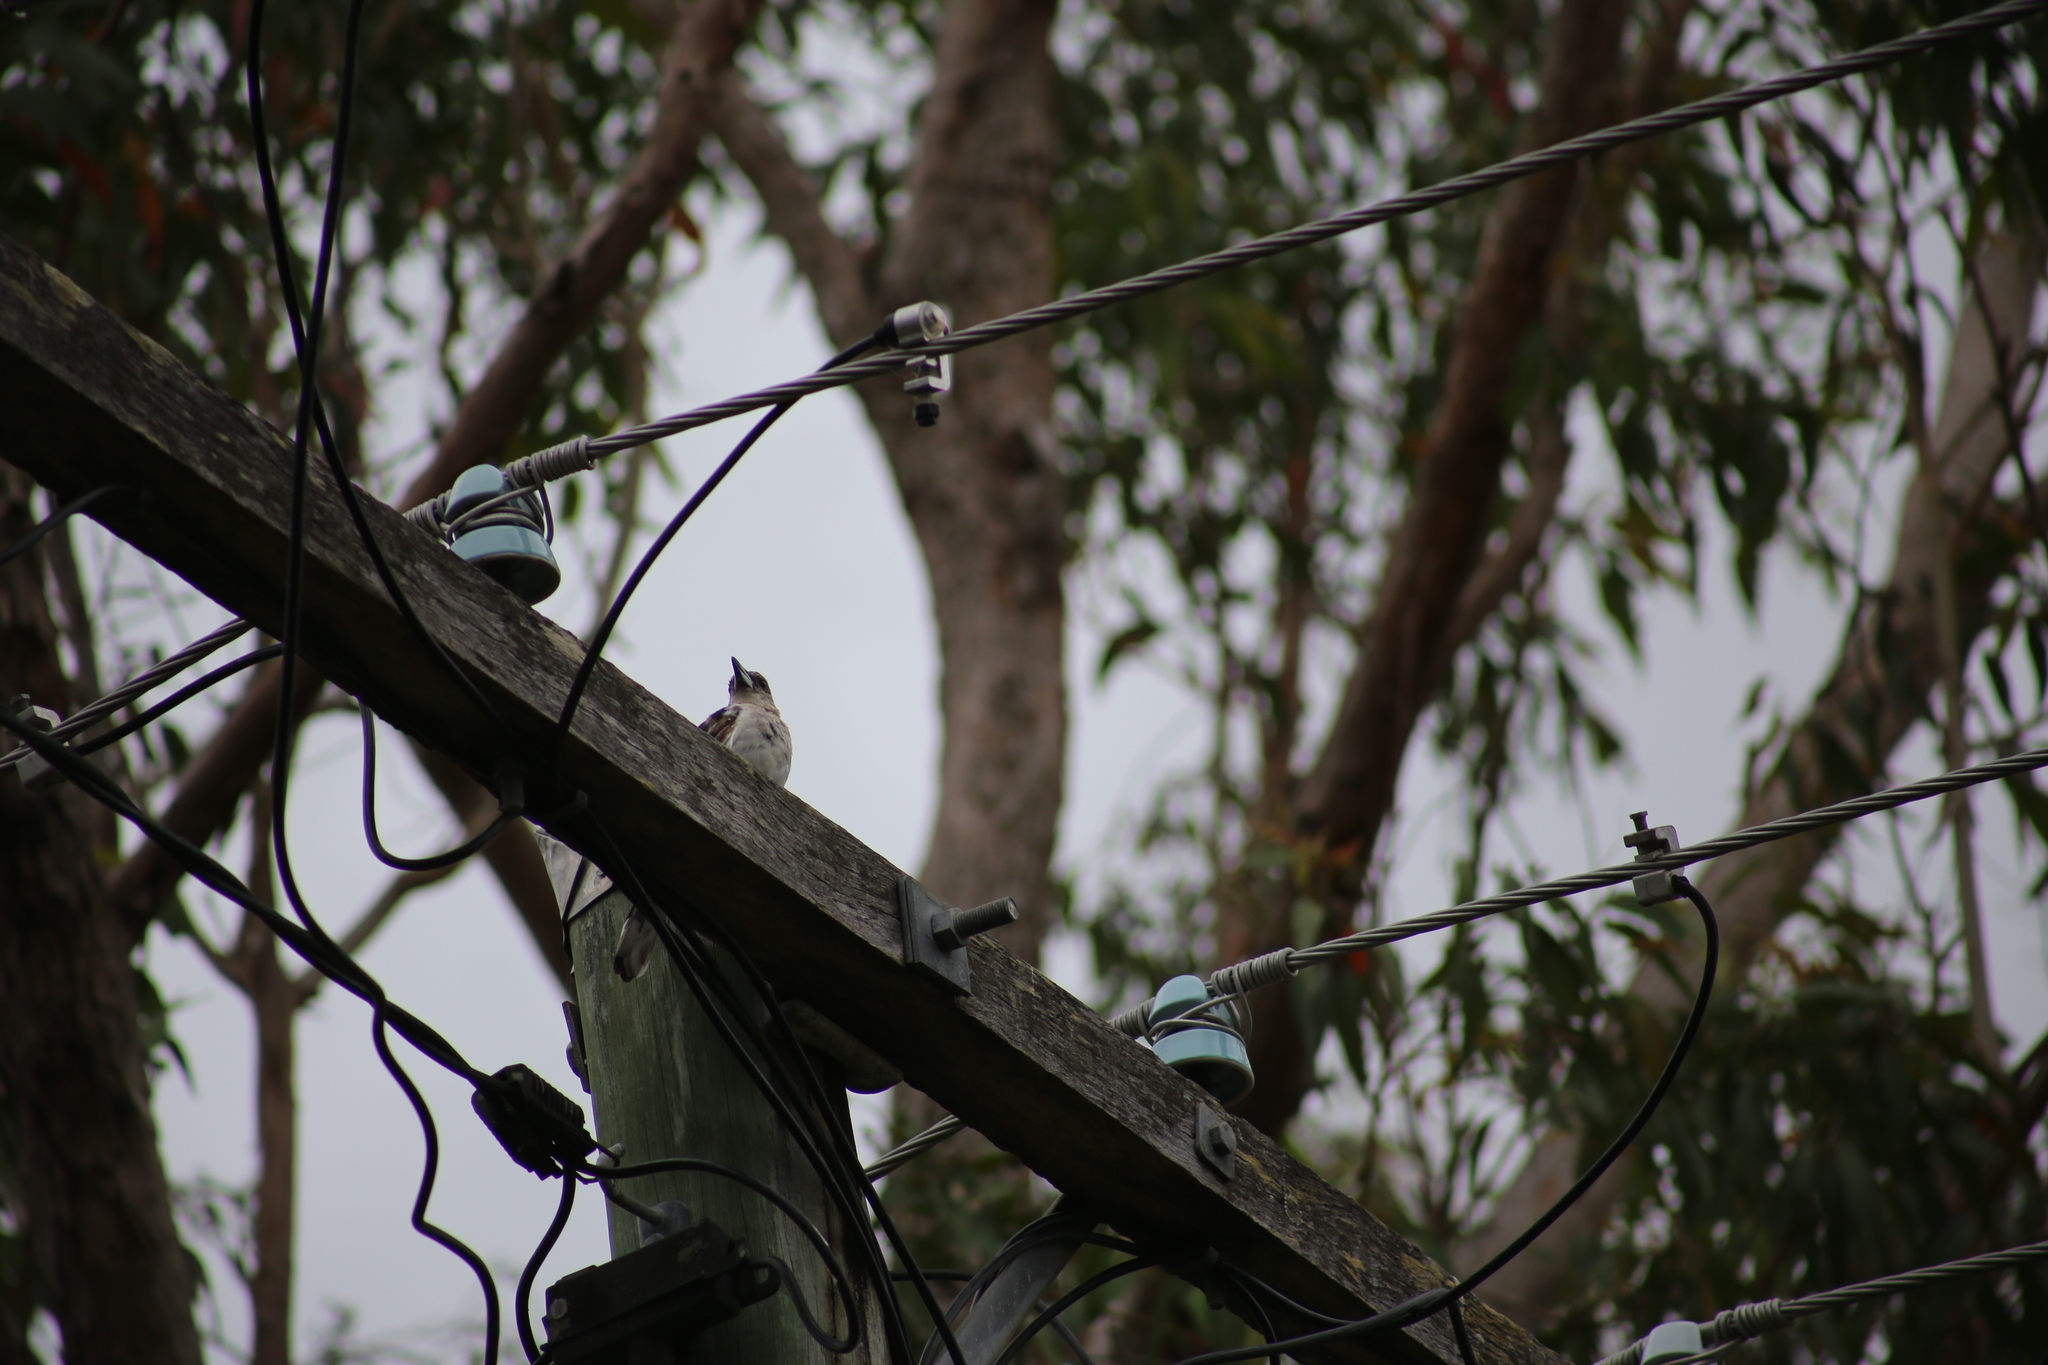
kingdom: Animalia
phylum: Chordata
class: Aves
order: Passeriformes
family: Cracticidae
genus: Cracticus
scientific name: Cracticus nigrogularis
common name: Pied butcherbird
